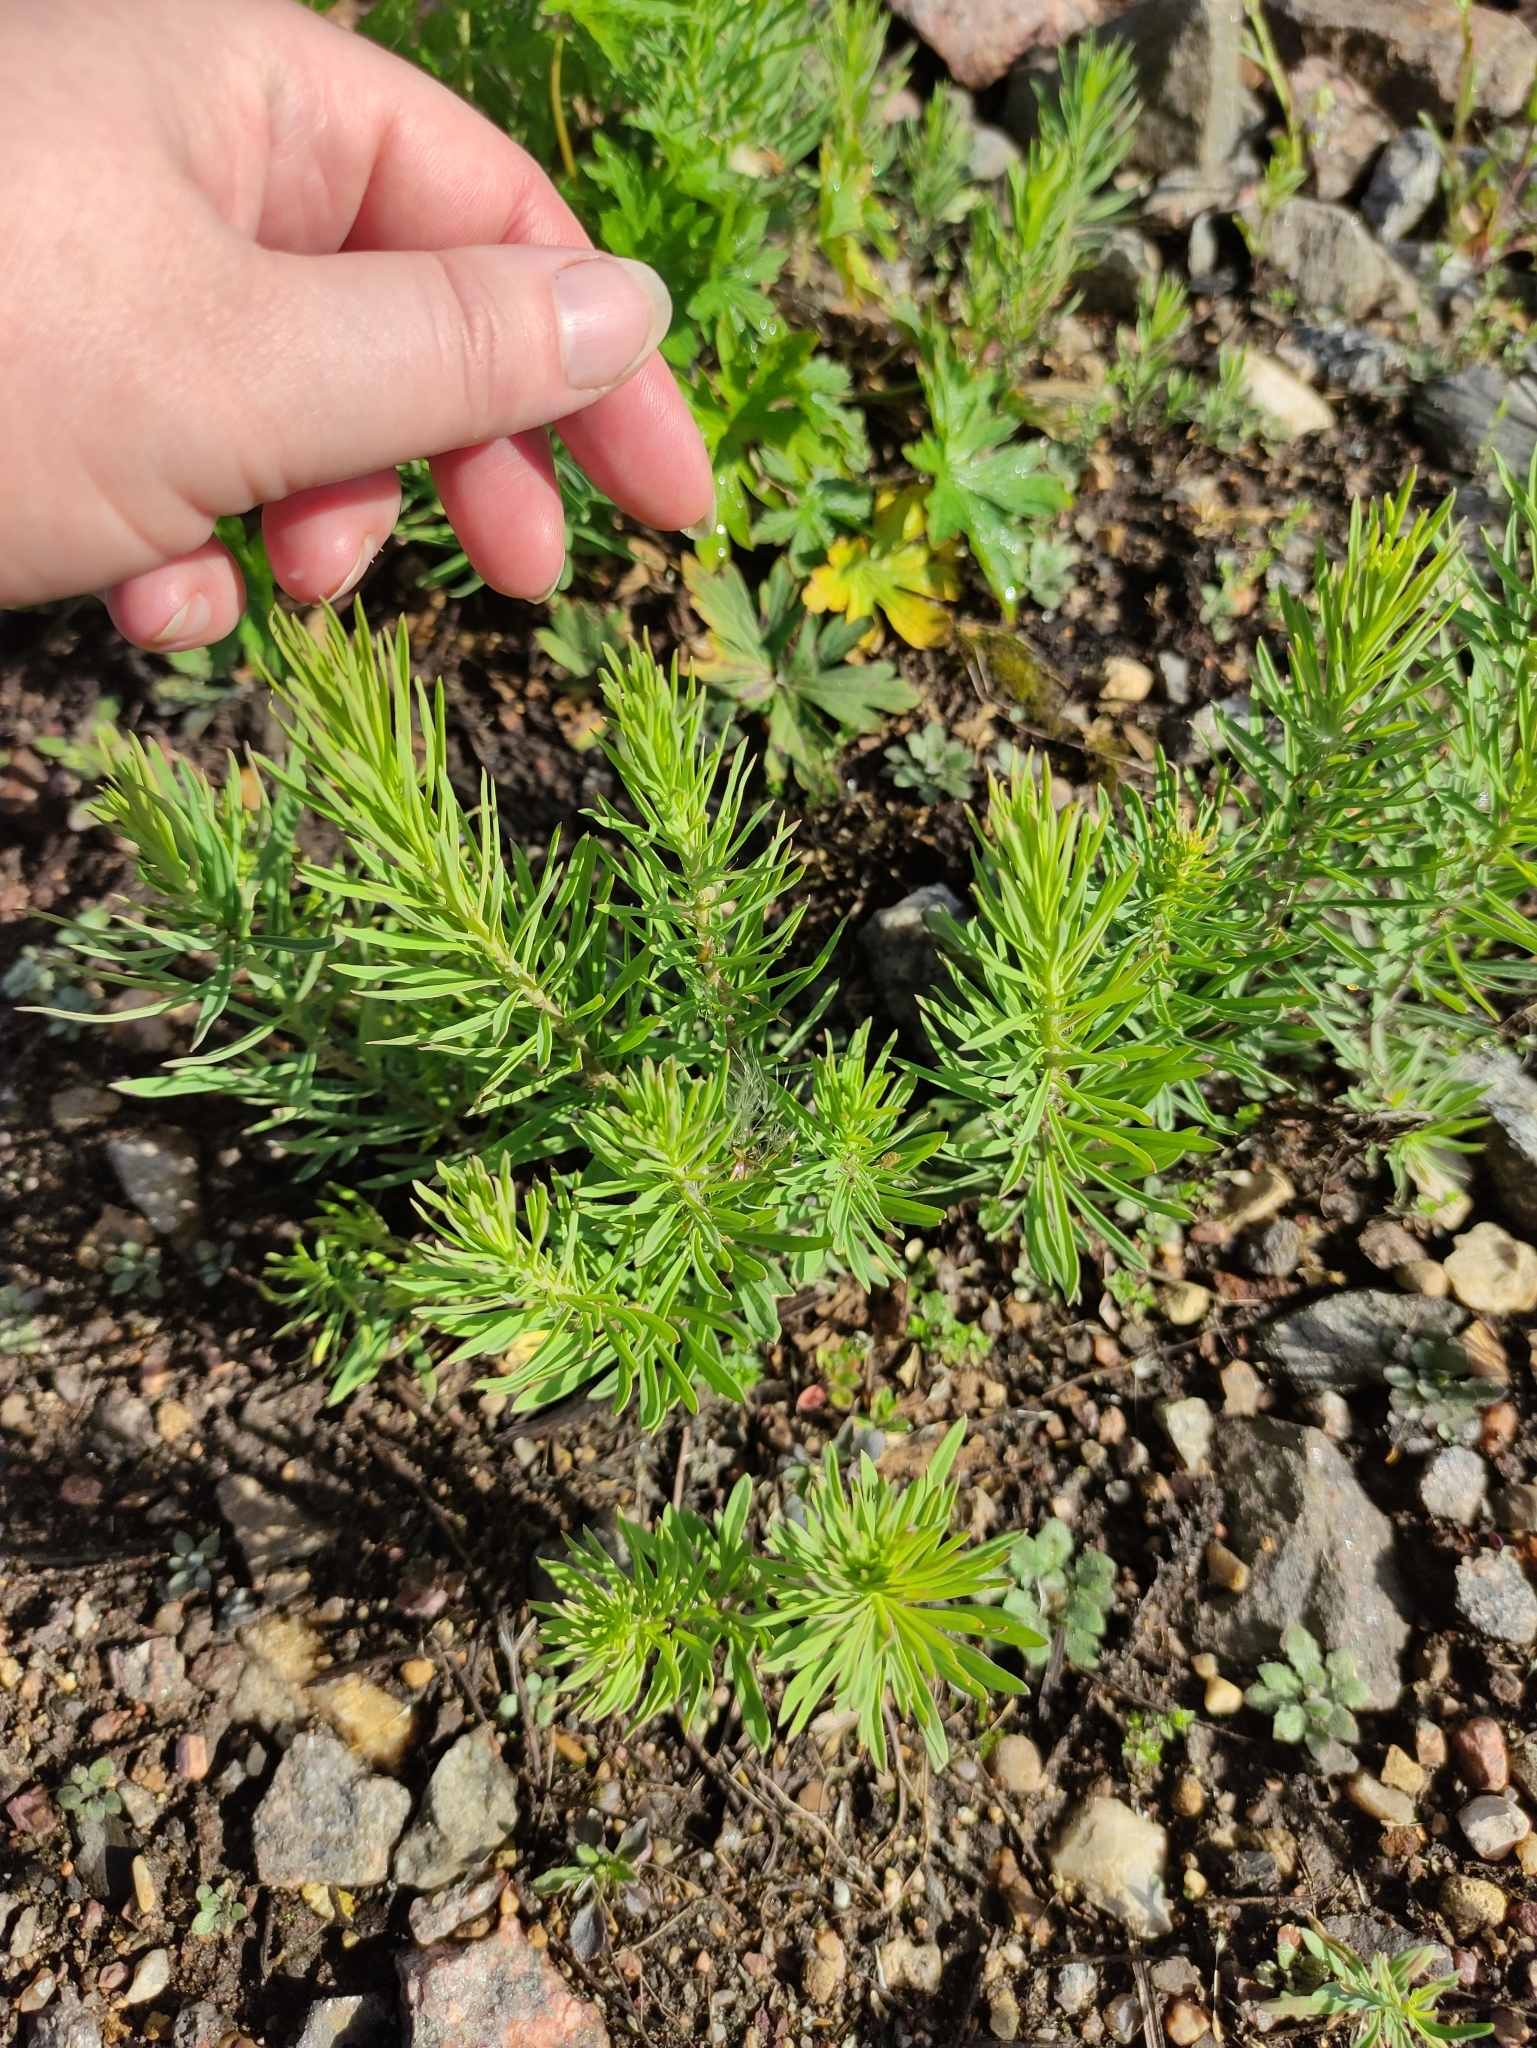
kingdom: Plantae
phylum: Tracheophyta
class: Magnoliopsida
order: Lamiales
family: Plantaginaceae
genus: Linaria
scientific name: Linaria vulgaris
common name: Butter and eggs
